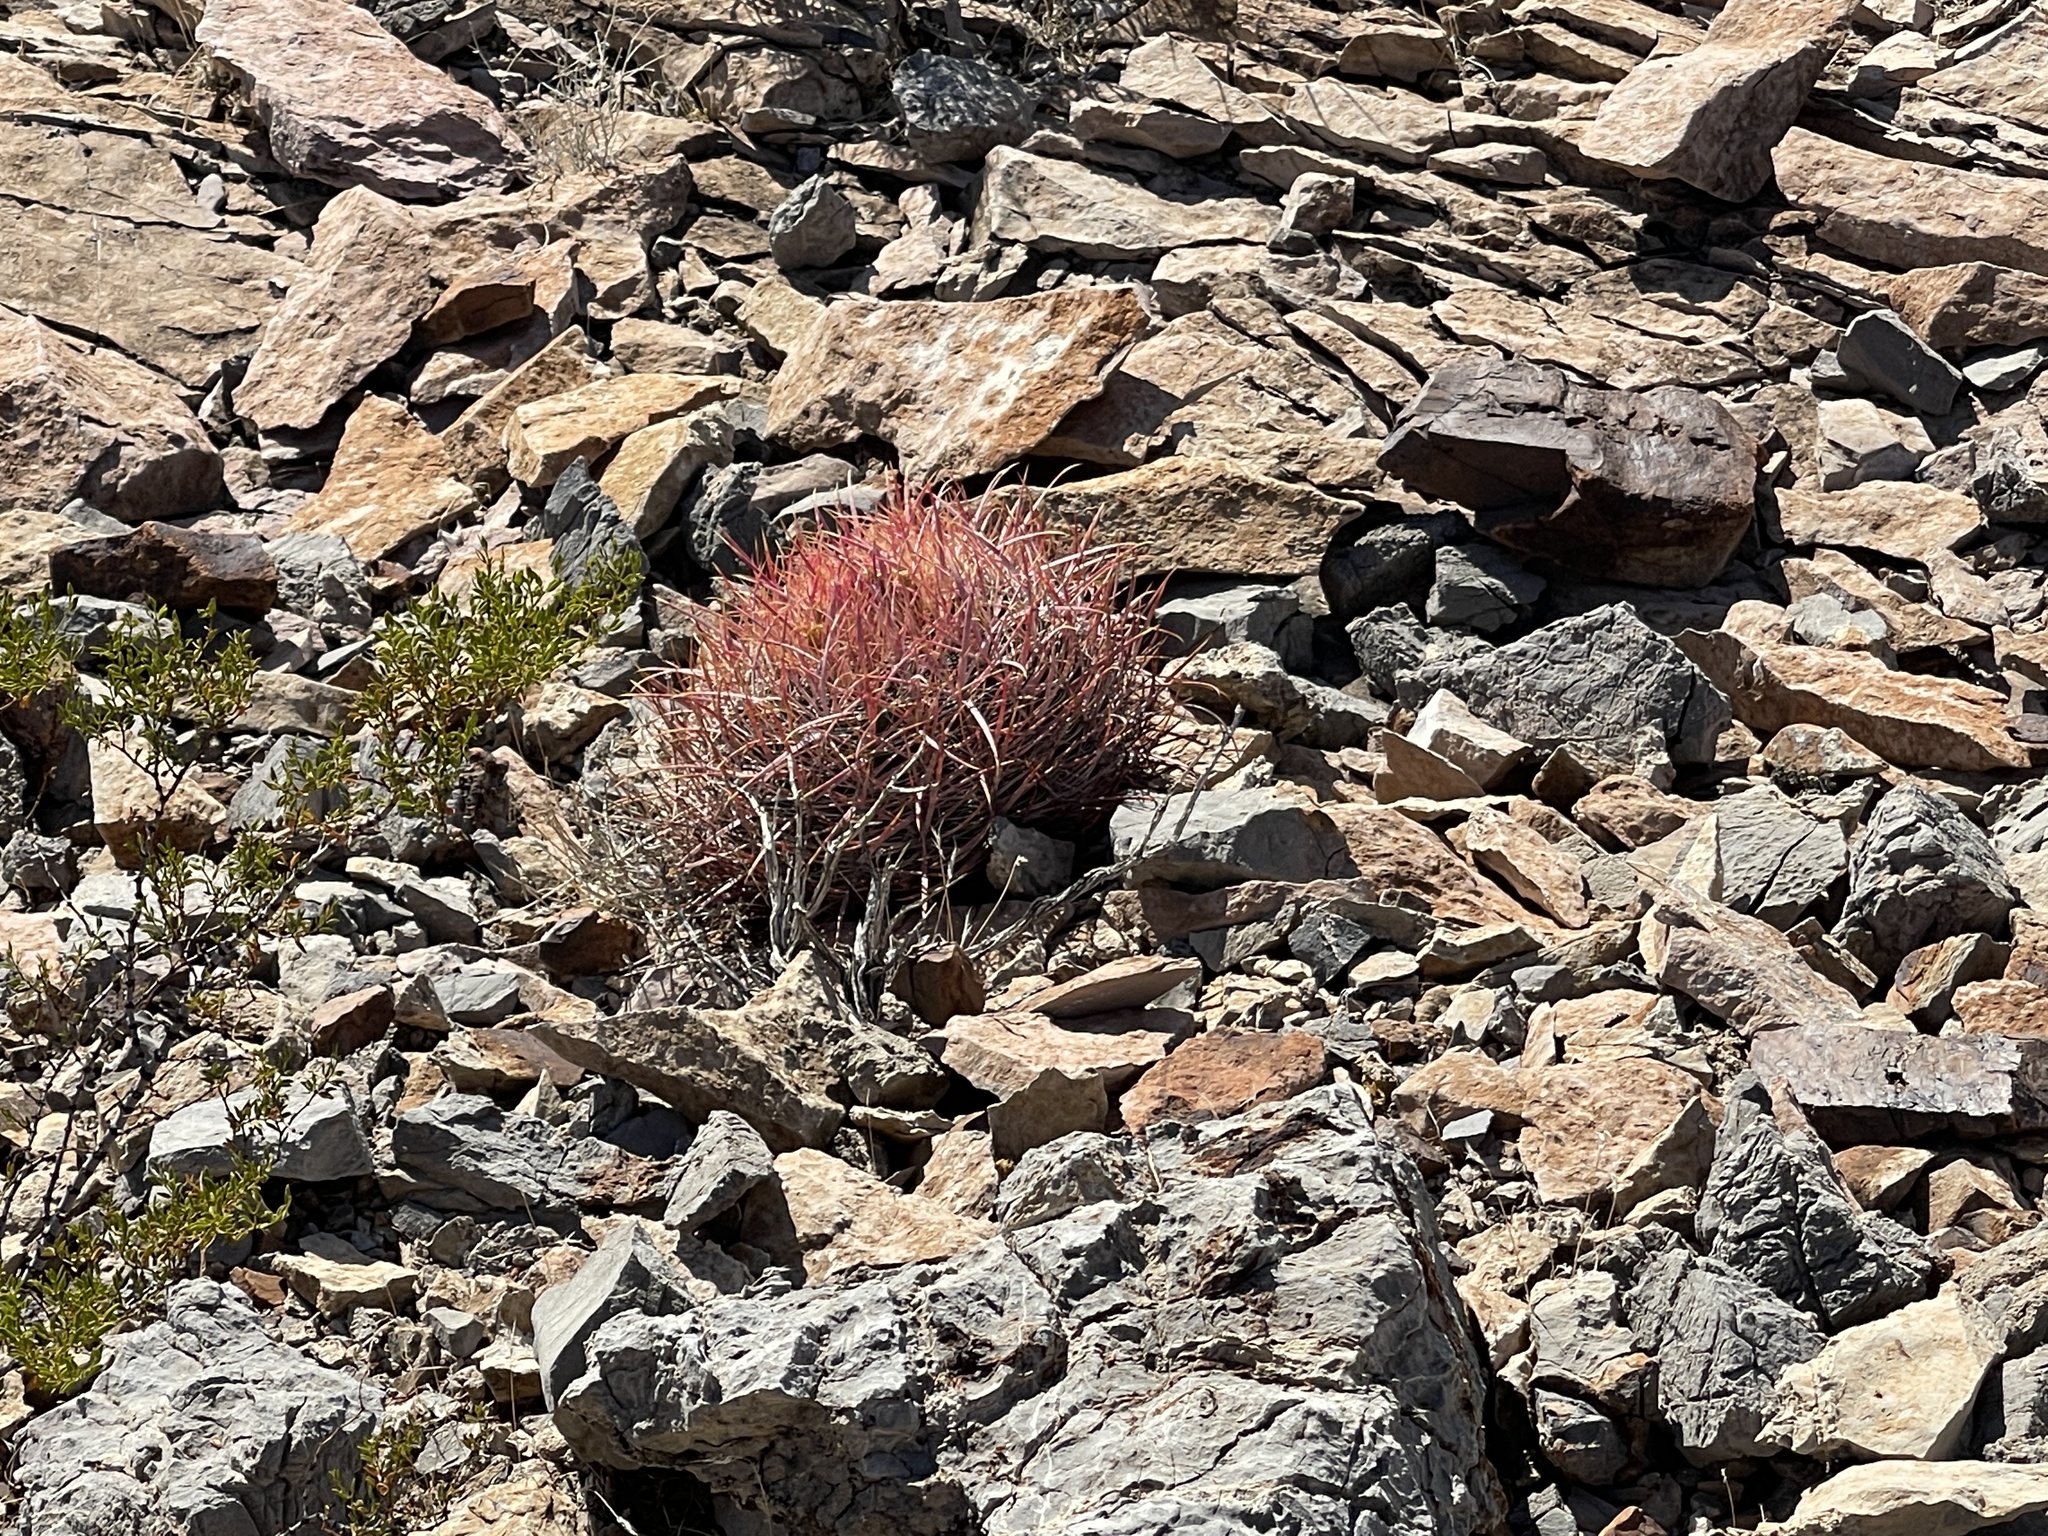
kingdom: Plantae
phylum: Tracheophyta
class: Magnoliopsida
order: Caryophyllales
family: Cactaceae
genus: Ferocactus
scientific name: Ferocactus cylindraceus
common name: California barrel cactus
